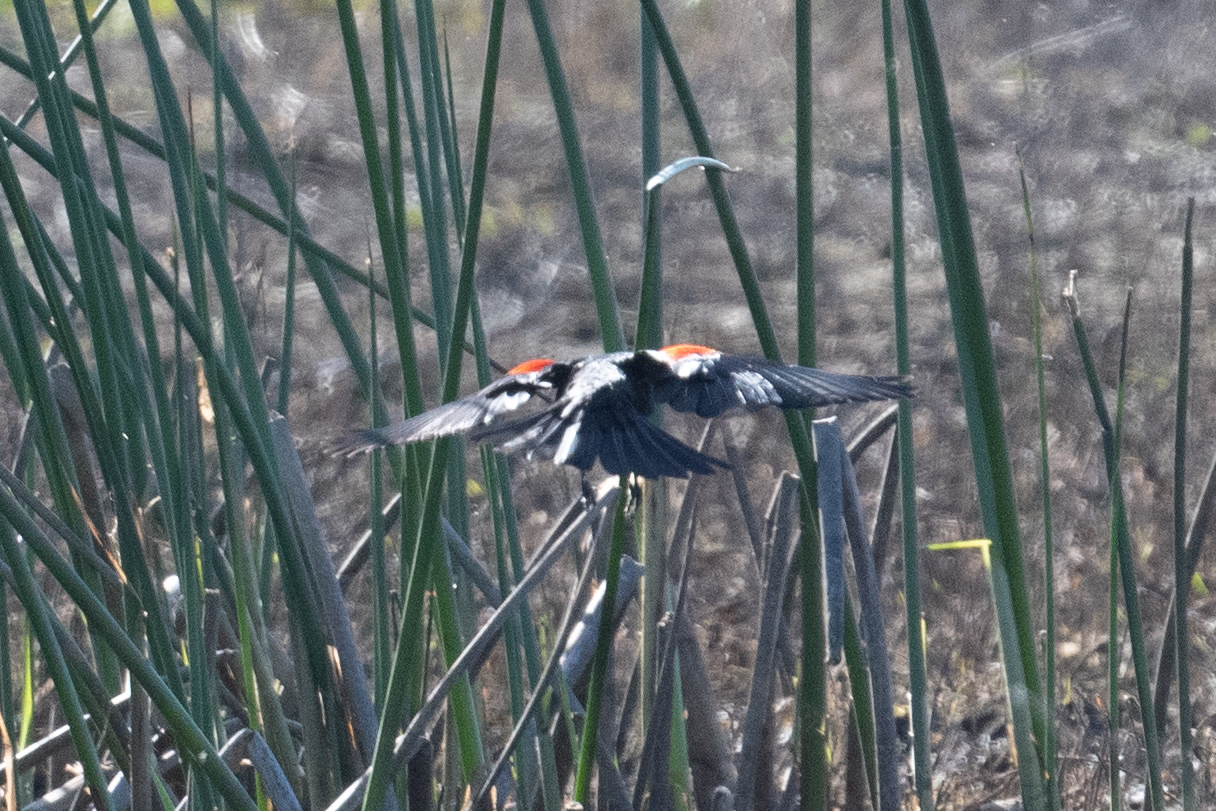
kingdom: Animalia
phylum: Chordata
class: Aves
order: Passeriformes
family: Icteridae
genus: Agelaius
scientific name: Agelaius tricolor
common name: Tricolored blackbird
